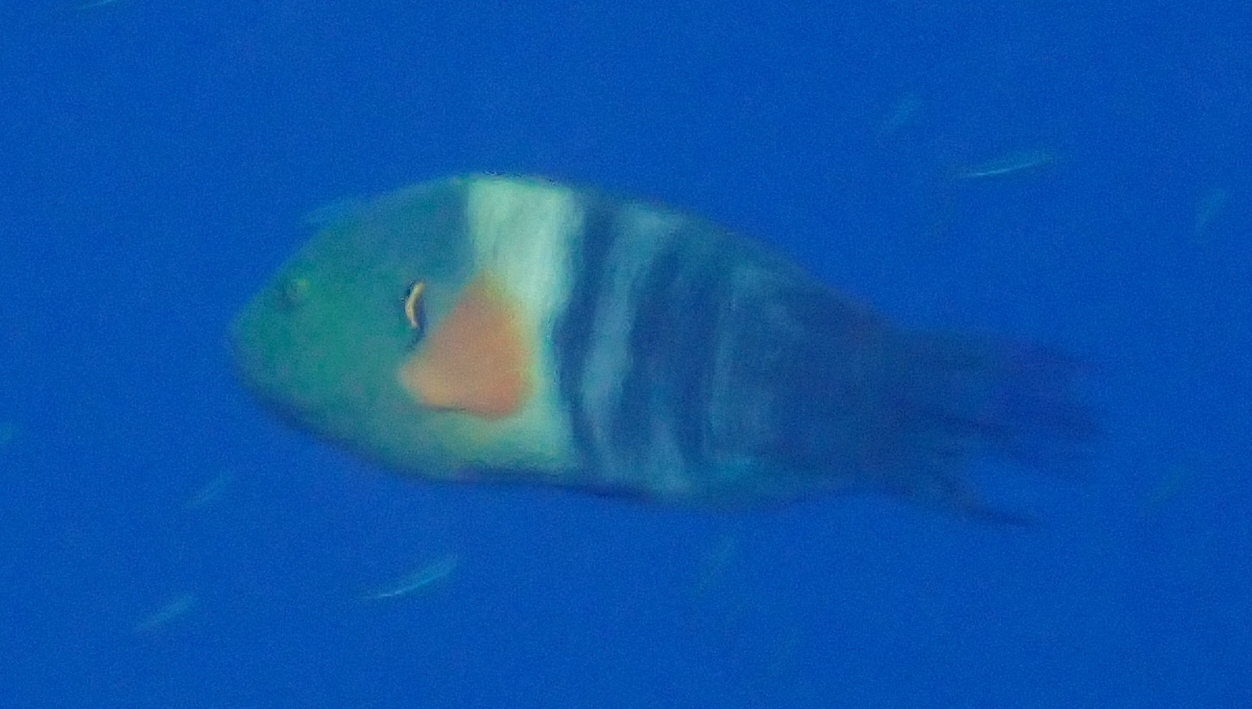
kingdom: Animalia
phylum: Chordata
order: Perciformes
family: Labridae
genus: Cheilinus
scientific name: Cheilinus lunulatus
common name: Broomtail wrasse
